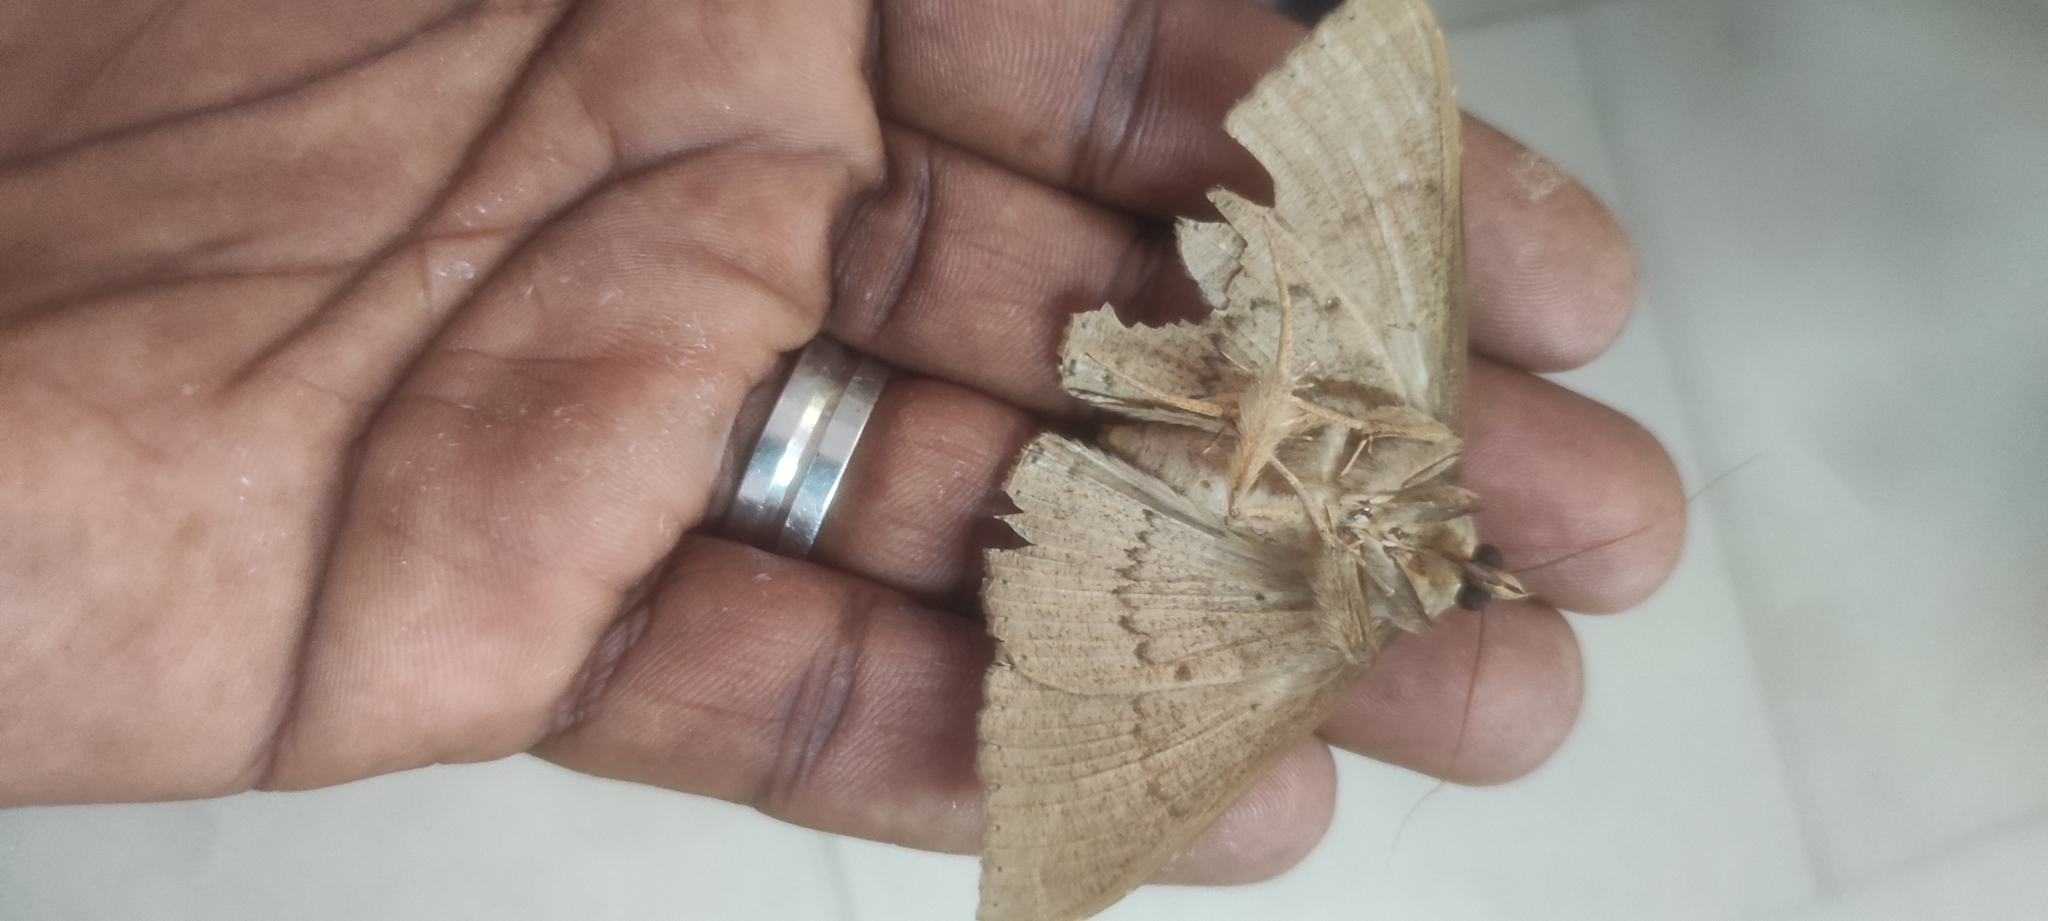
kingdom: Animalia
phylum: Arthropoda
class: Insecta
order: Lepidoptera
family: Erebidae
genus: Hulodes
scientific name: Hulodes caranea
